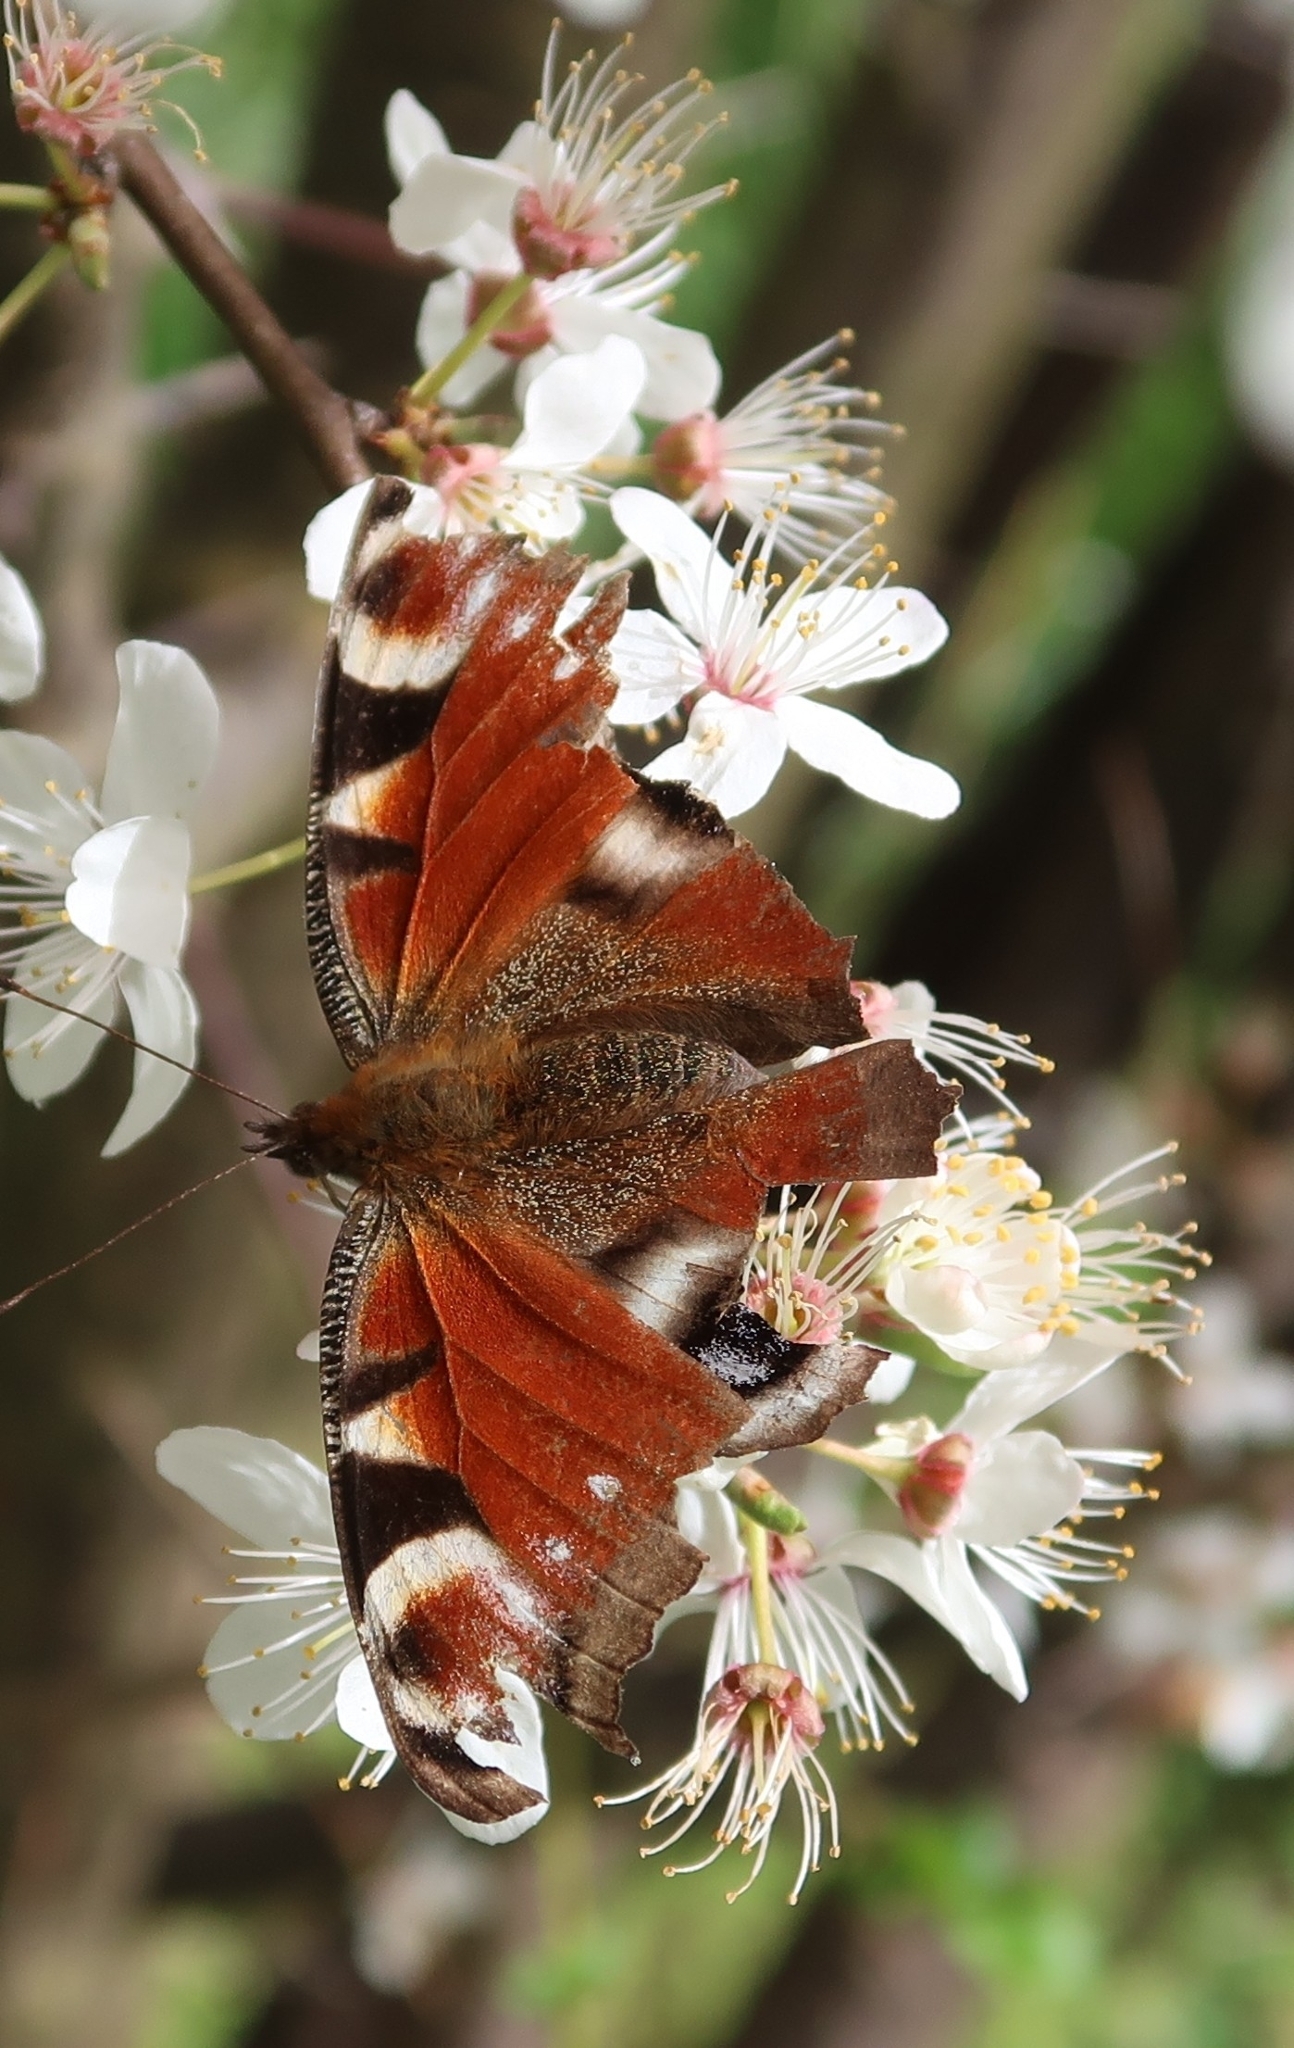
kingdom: Animalia
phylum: Arthropoda
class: Insecta
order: Lepidoptera
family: Nymphalidae
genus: Aglais
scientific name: Aglais io
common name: Peacock
